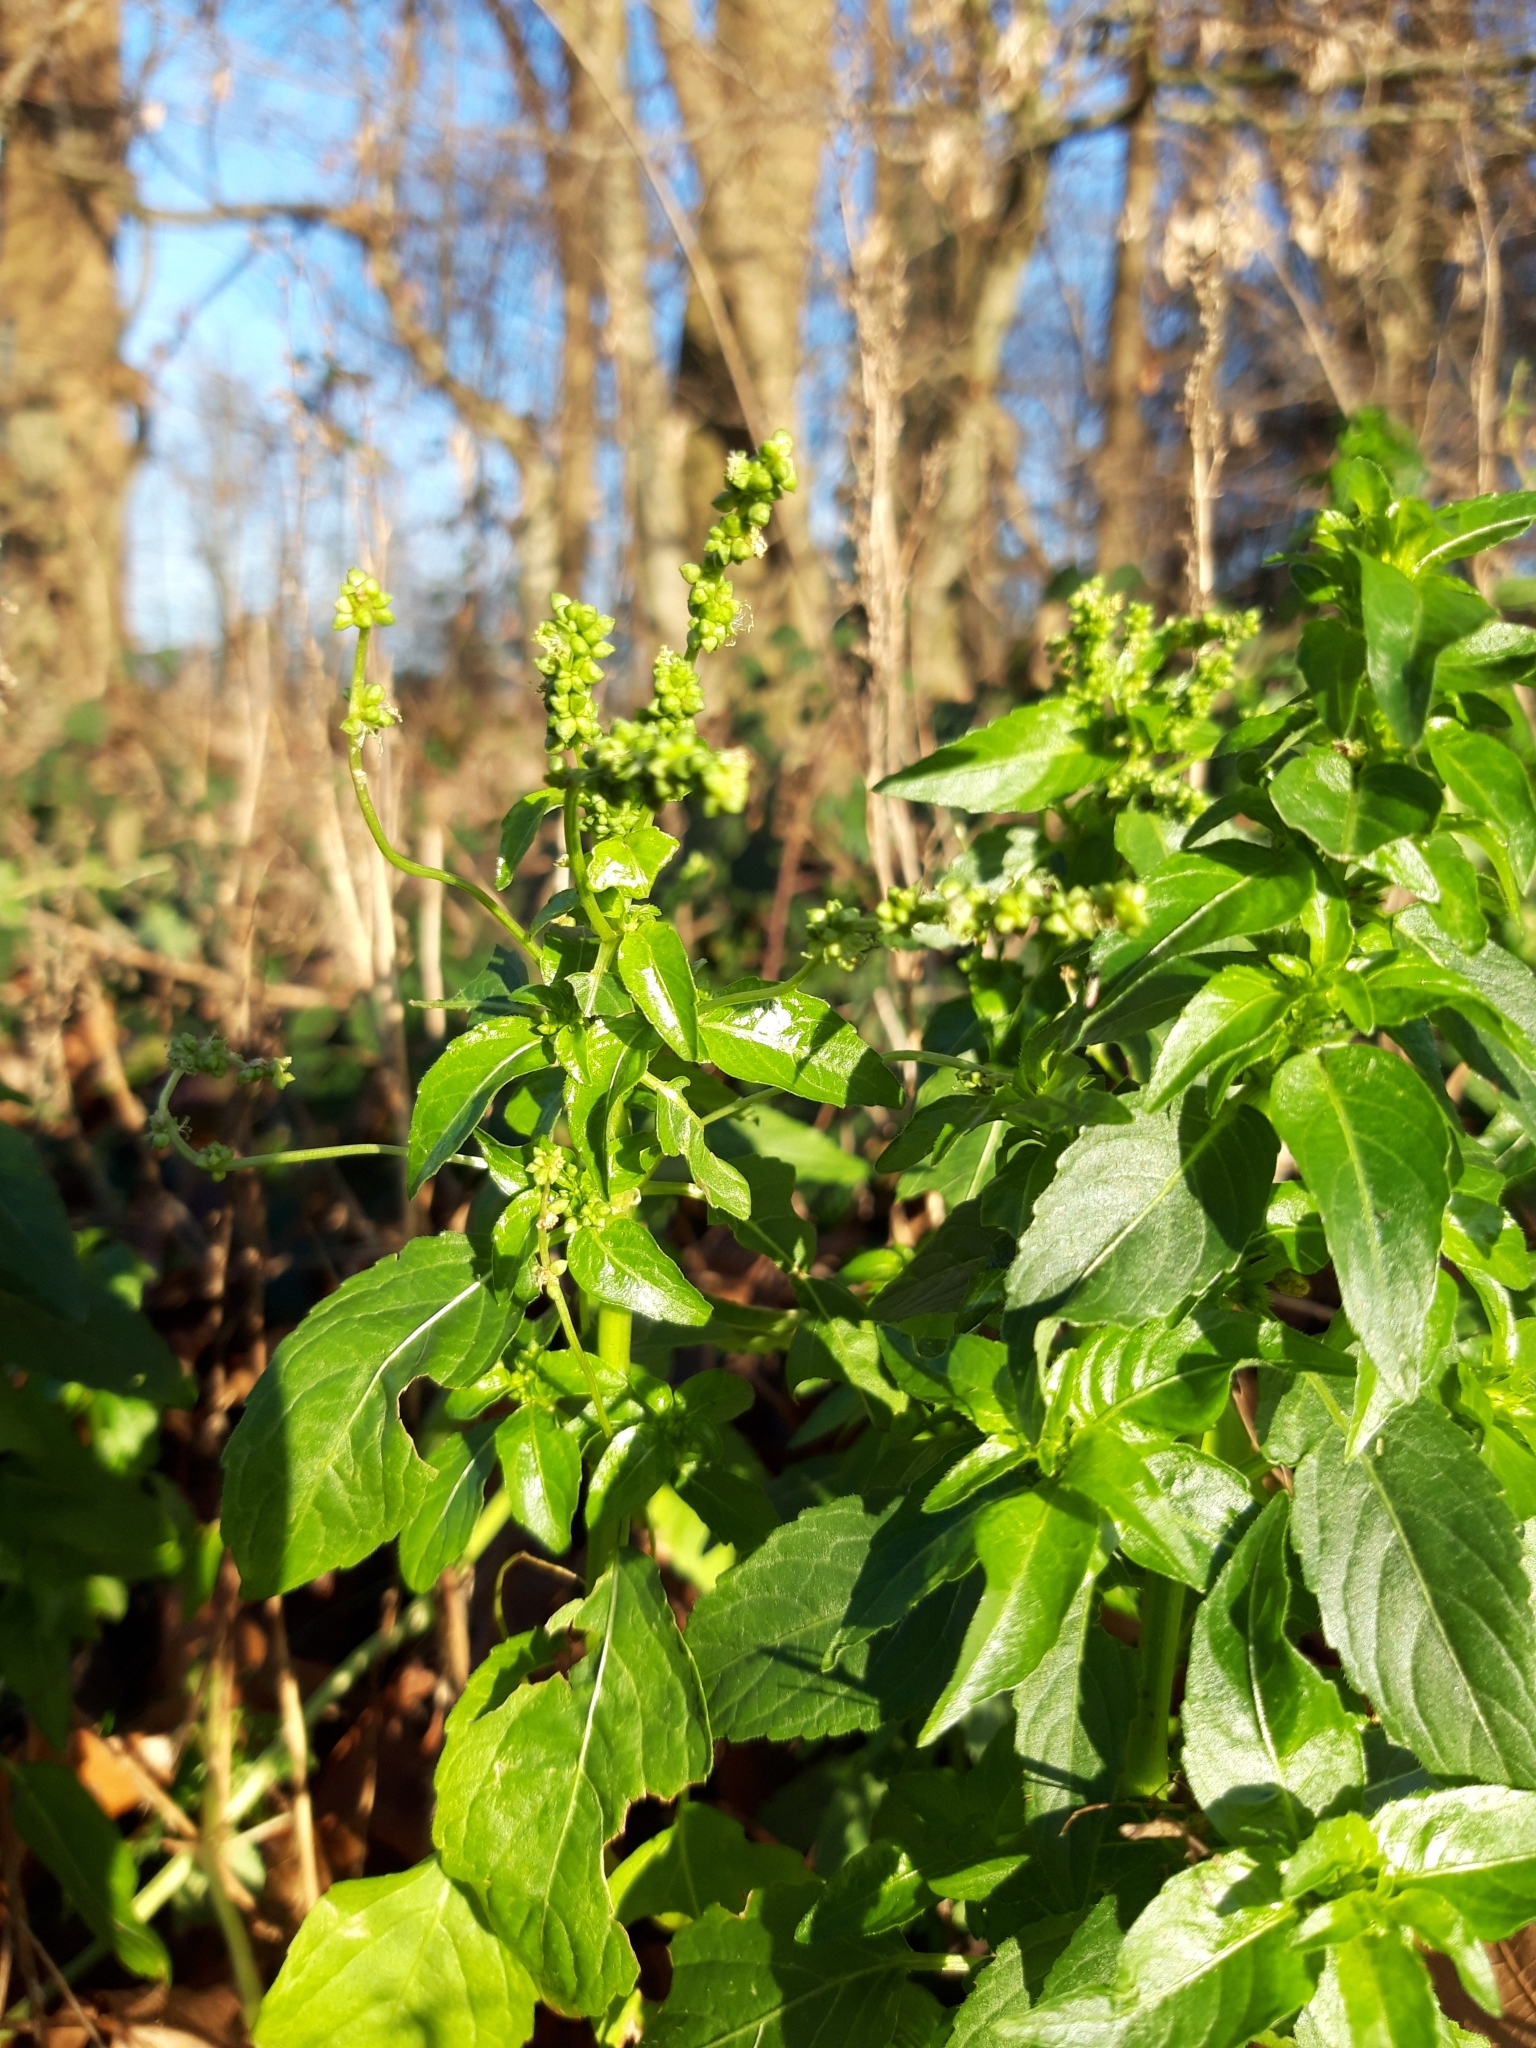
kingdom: Plantae
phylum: Tracheophyta
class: Magnoliopsida
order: Malpighiales
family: Euphorbiaceae
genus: Mercurialis
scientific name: Mercurialis annua
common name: Annual mercury
